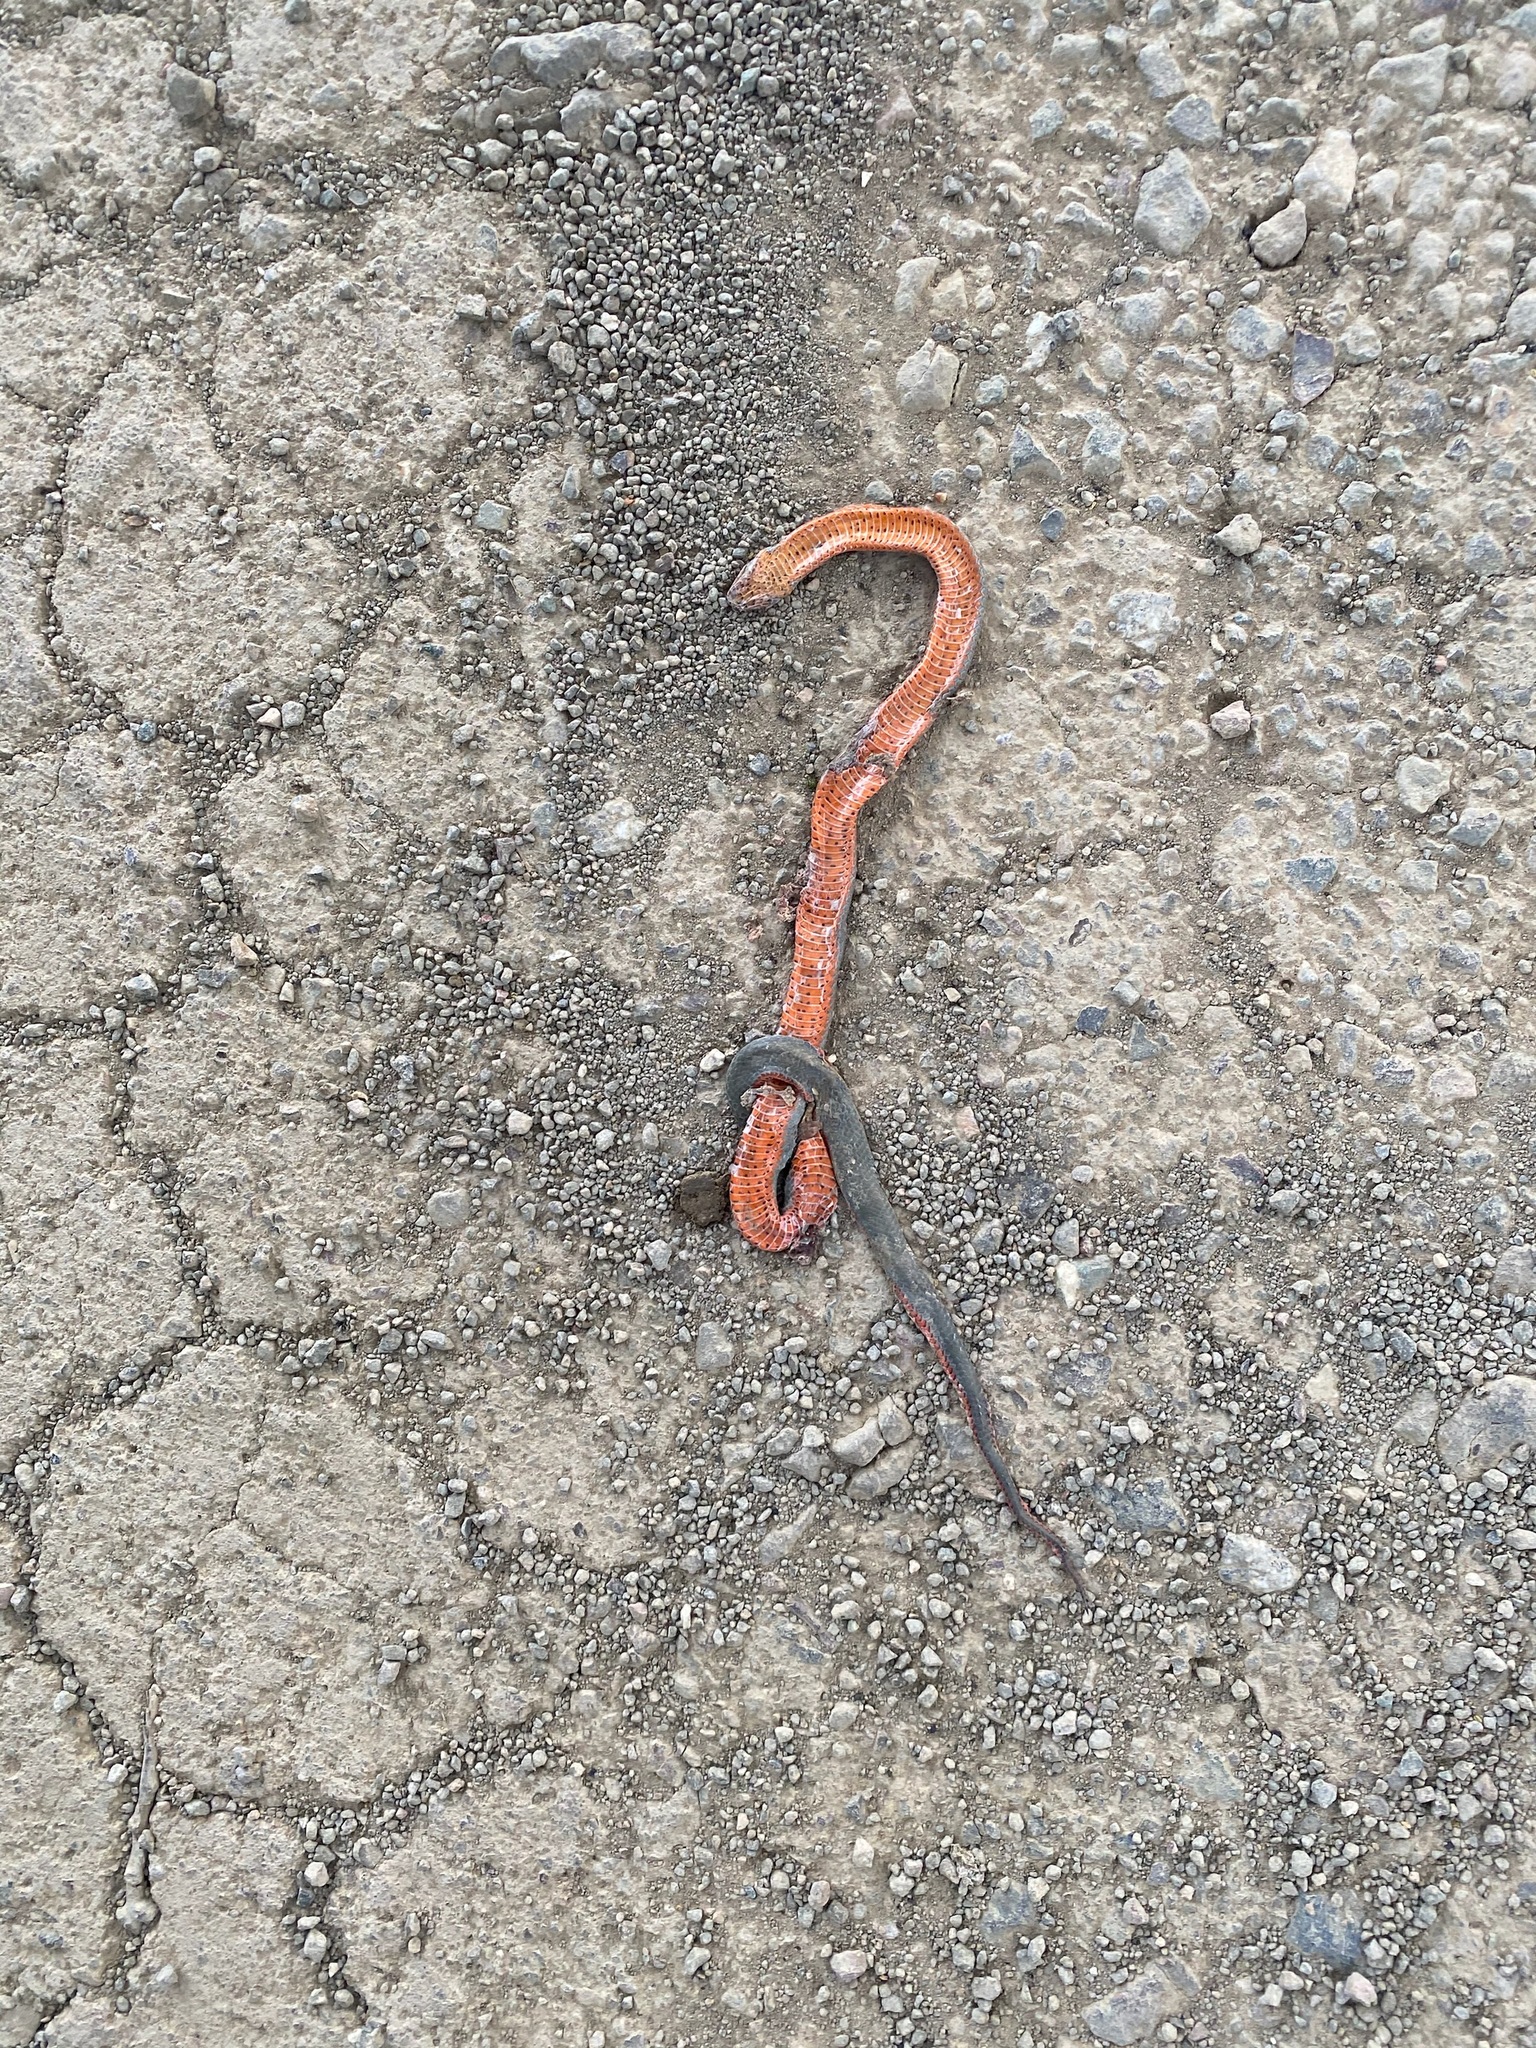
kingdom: Animalia
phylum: Chordata
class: Squamata
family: Colubridae
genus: Diadophis
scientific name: Diadophis punctatus
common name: Ringneck snake
